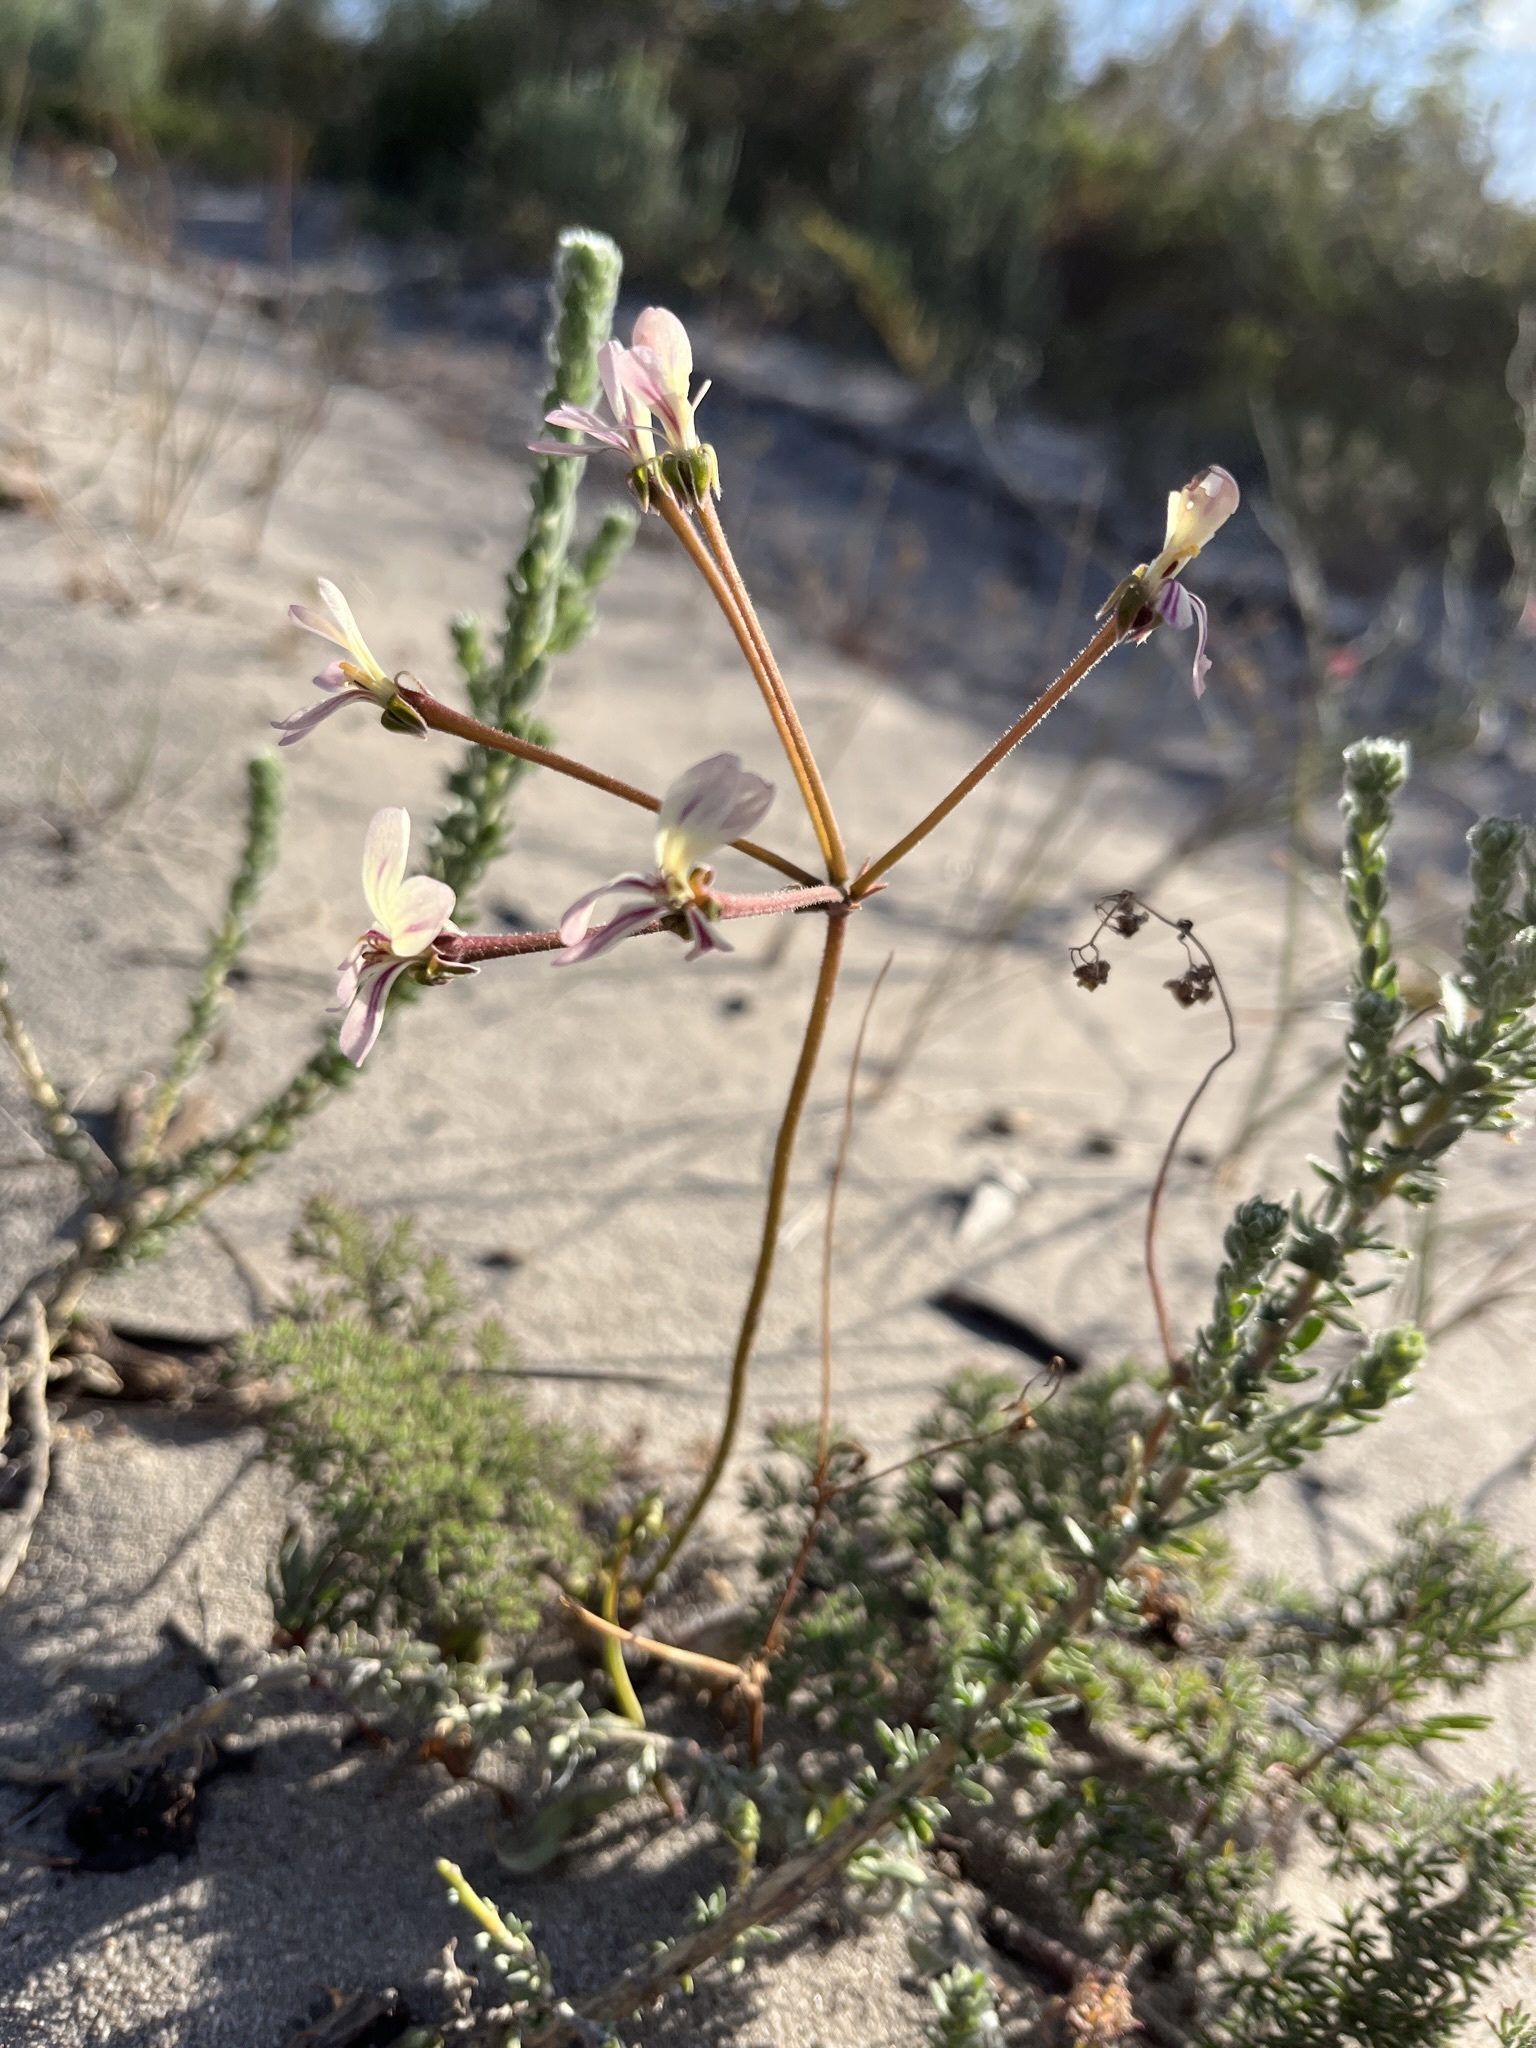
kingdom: Plantae
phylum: Tracheophyta
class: Magnoliopsida
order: Geraniales
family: Geraniaceae
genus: Pelargonium
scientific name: Pelargonium triste
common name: Night-scent pelargonium
